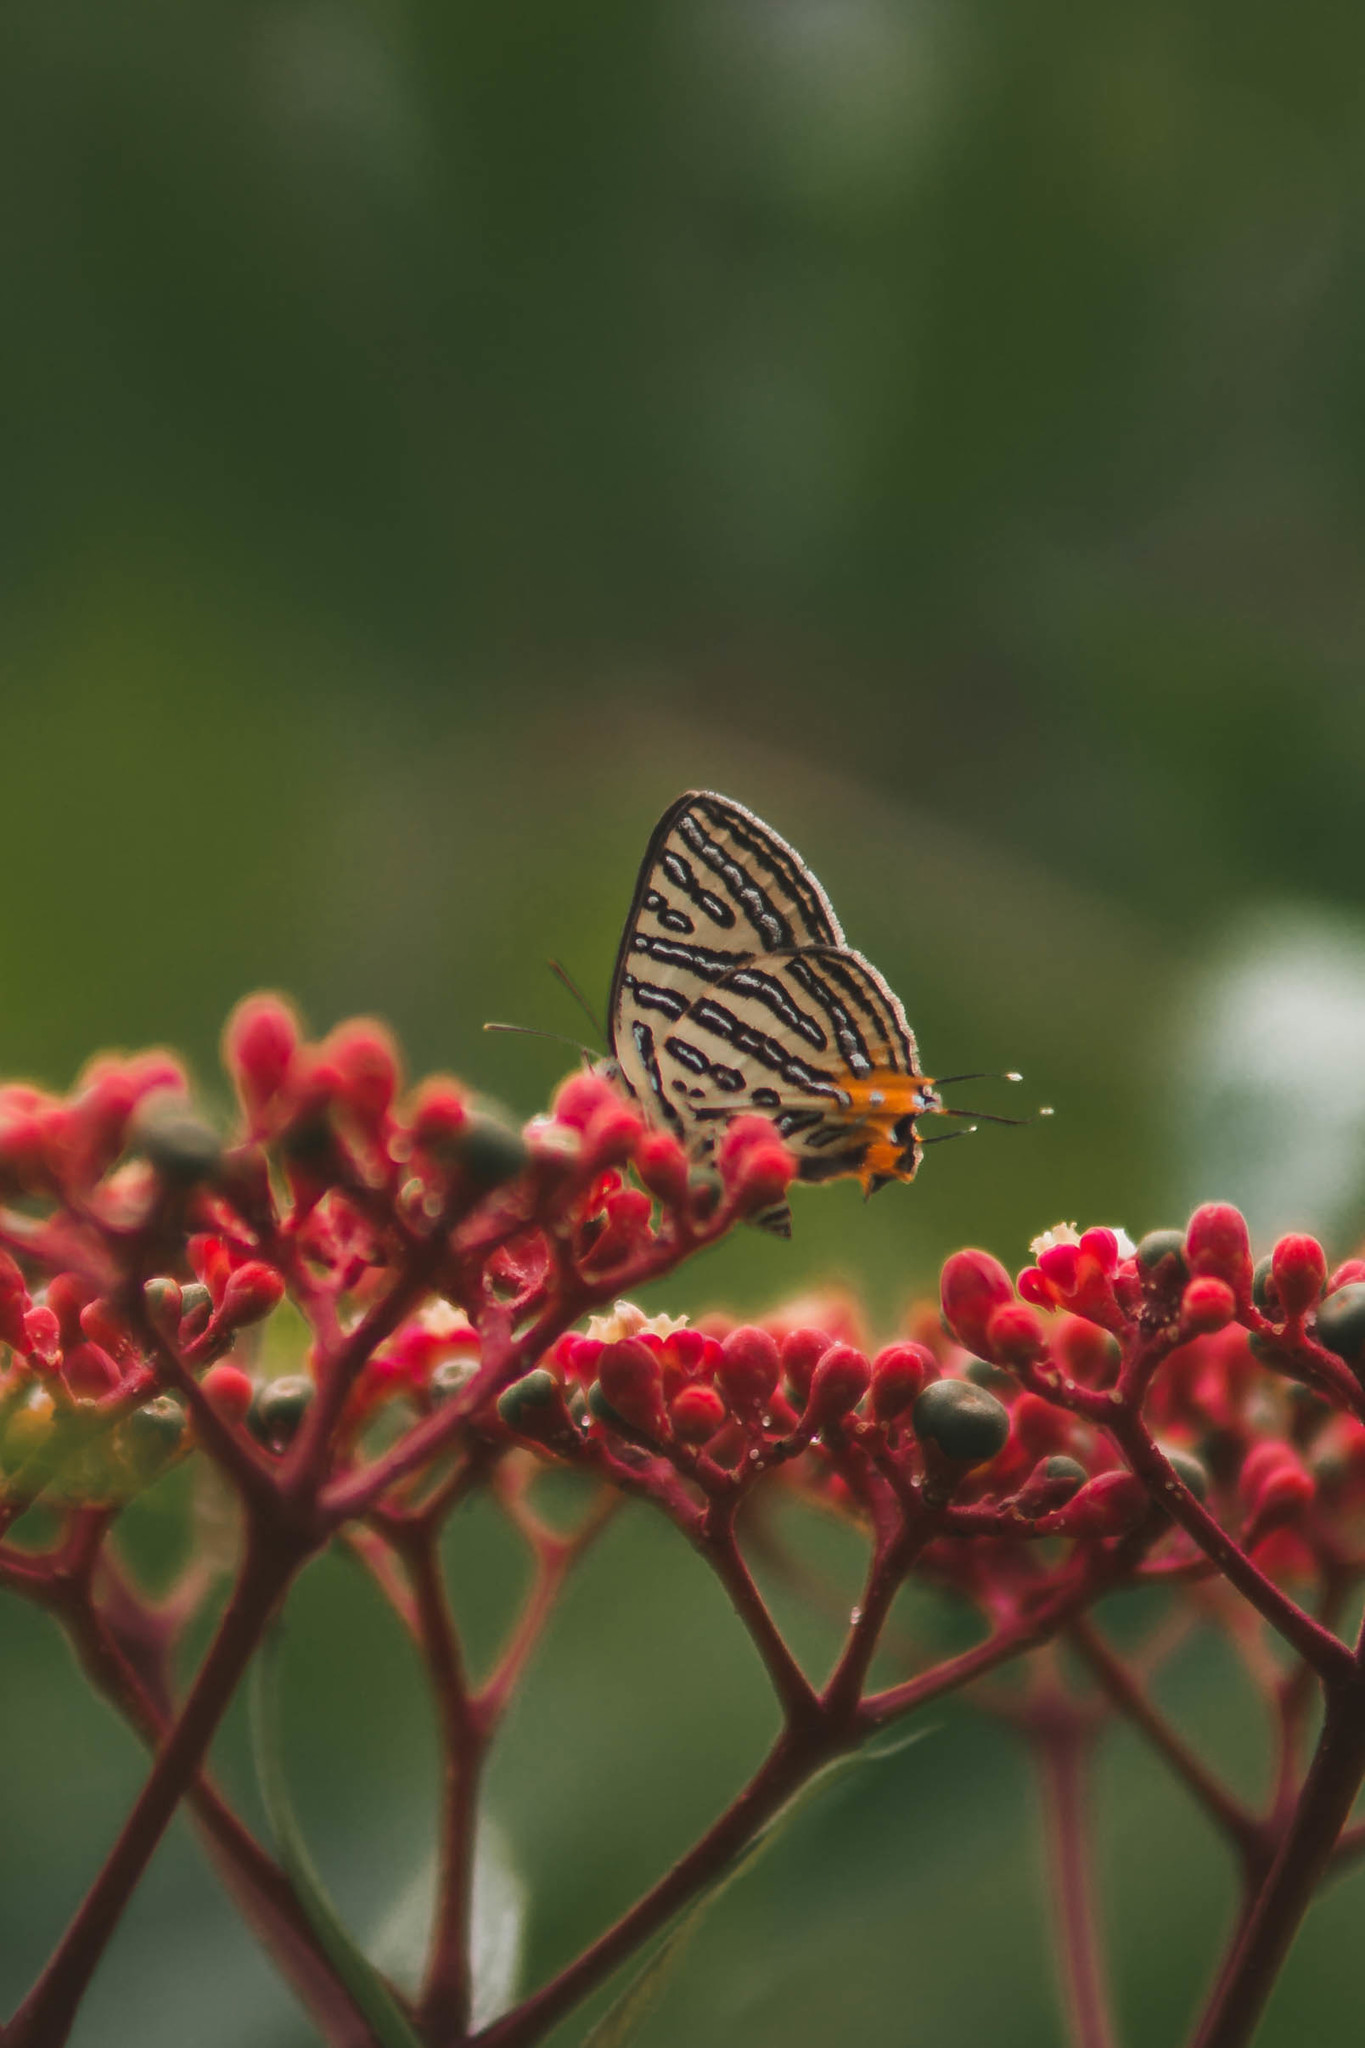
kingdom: Animalia
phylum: Arthropoda
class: Insecta
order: Lepidoptera
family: Lycaenidae
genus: Cigaritis
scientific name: Cigaritis syama
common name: Club silverline
